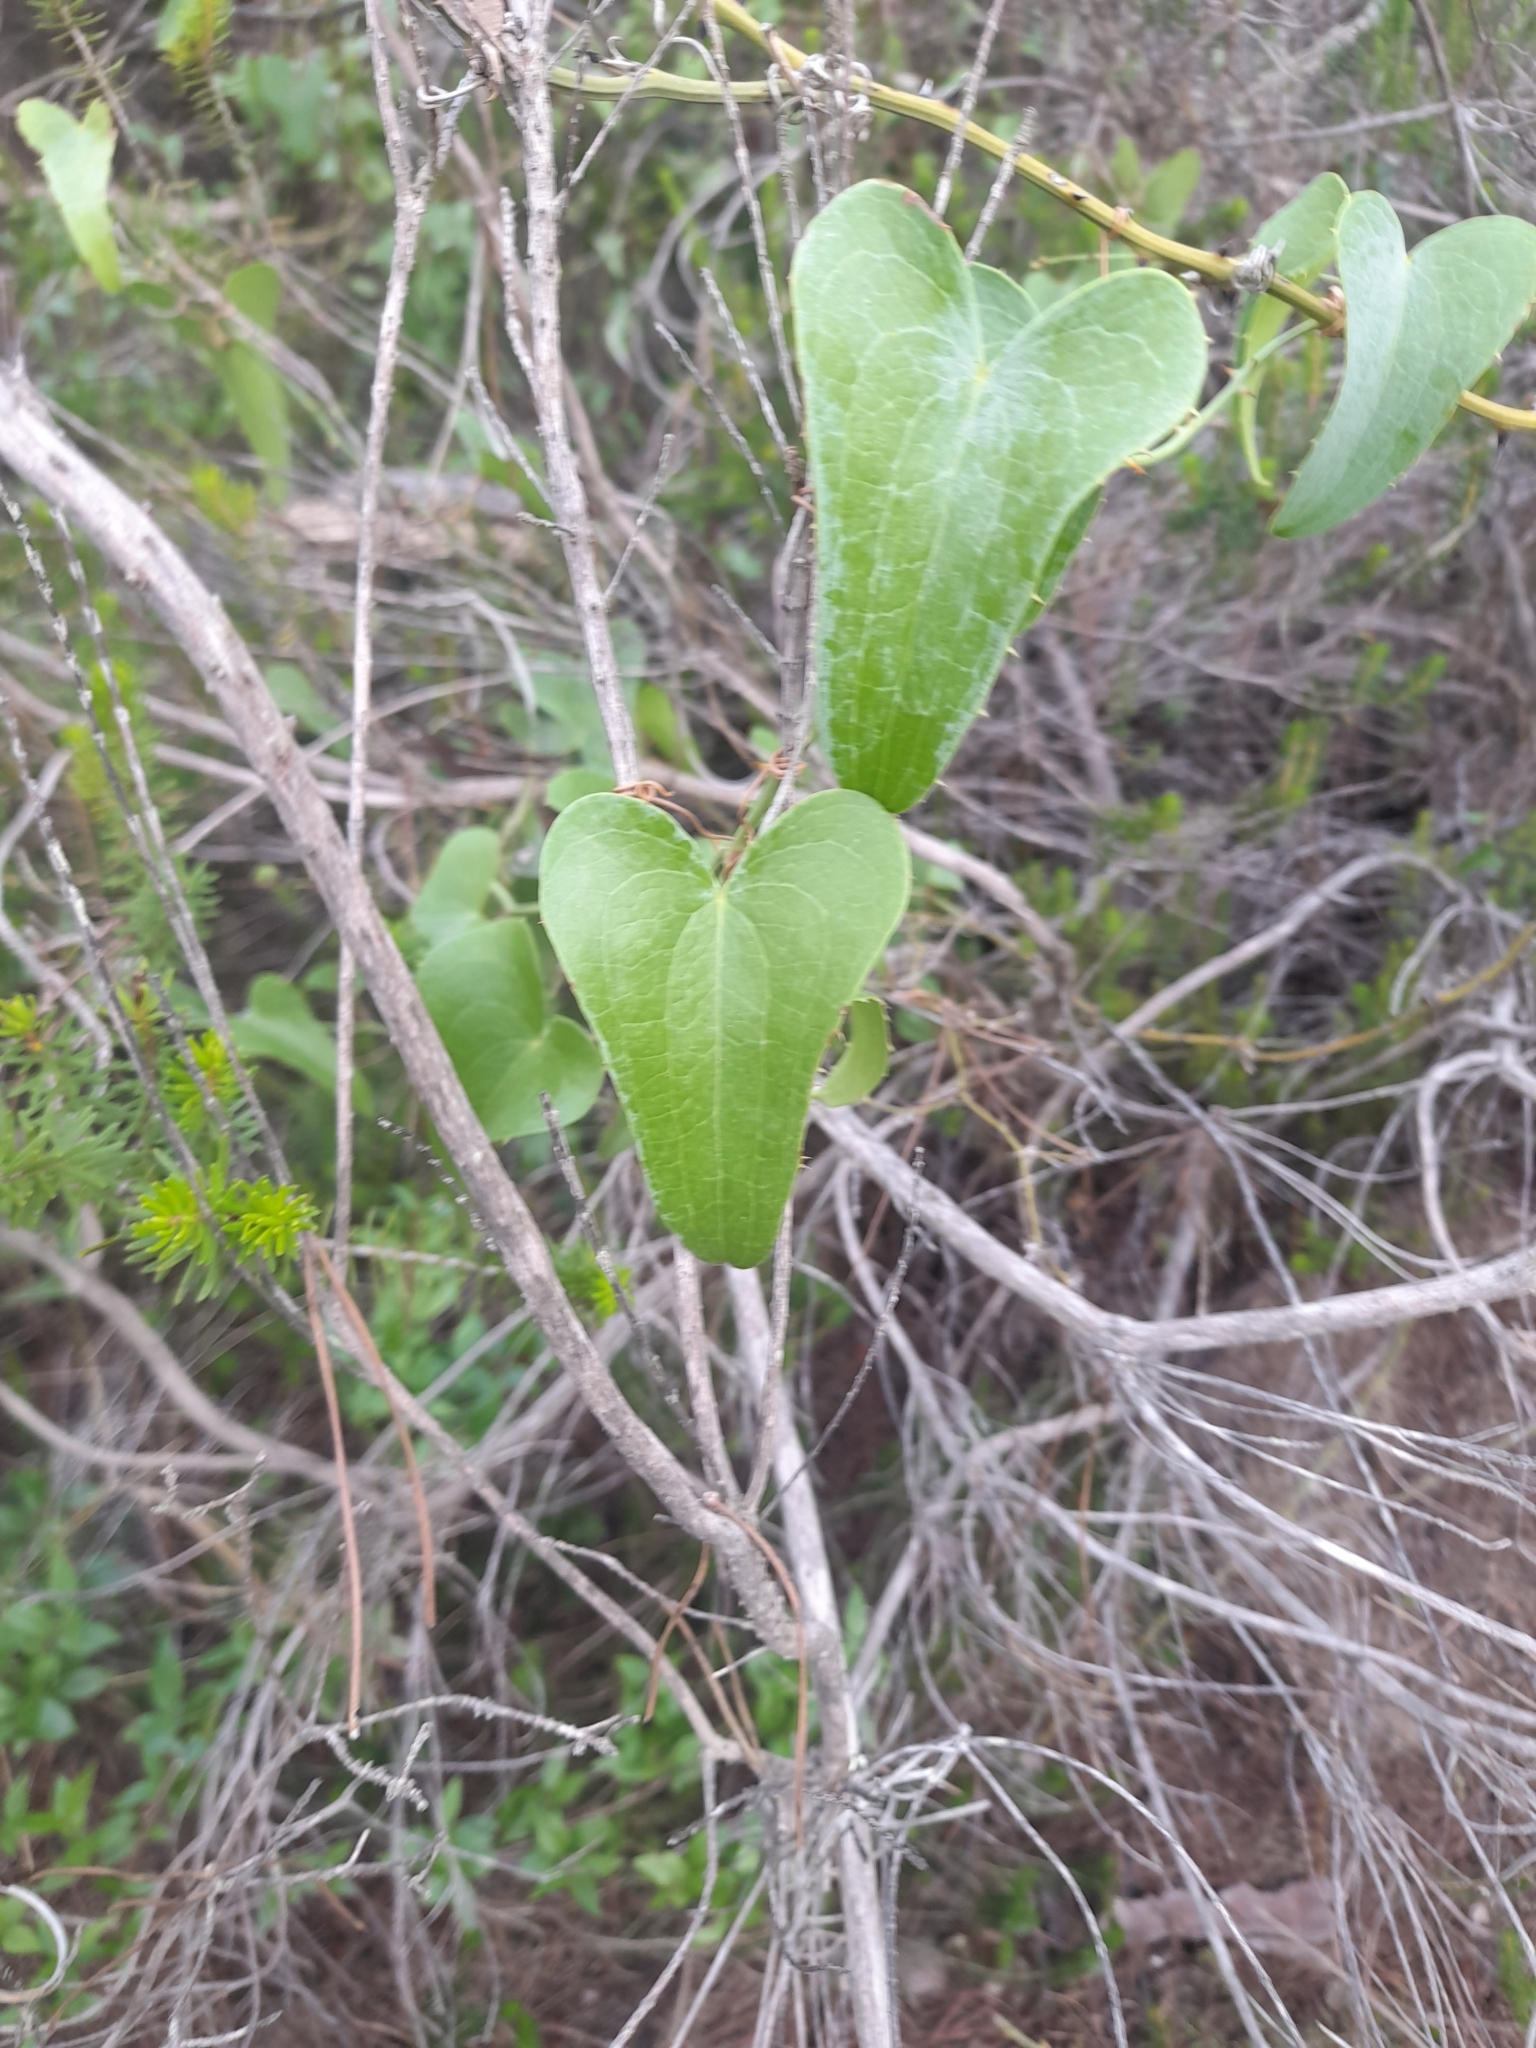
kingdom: Plantae
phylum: Tracheophyta
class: Liliopsida
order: Liliales
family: Smilacaceae
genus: Smilax
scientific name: Smilax aspera
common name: Common smilax
